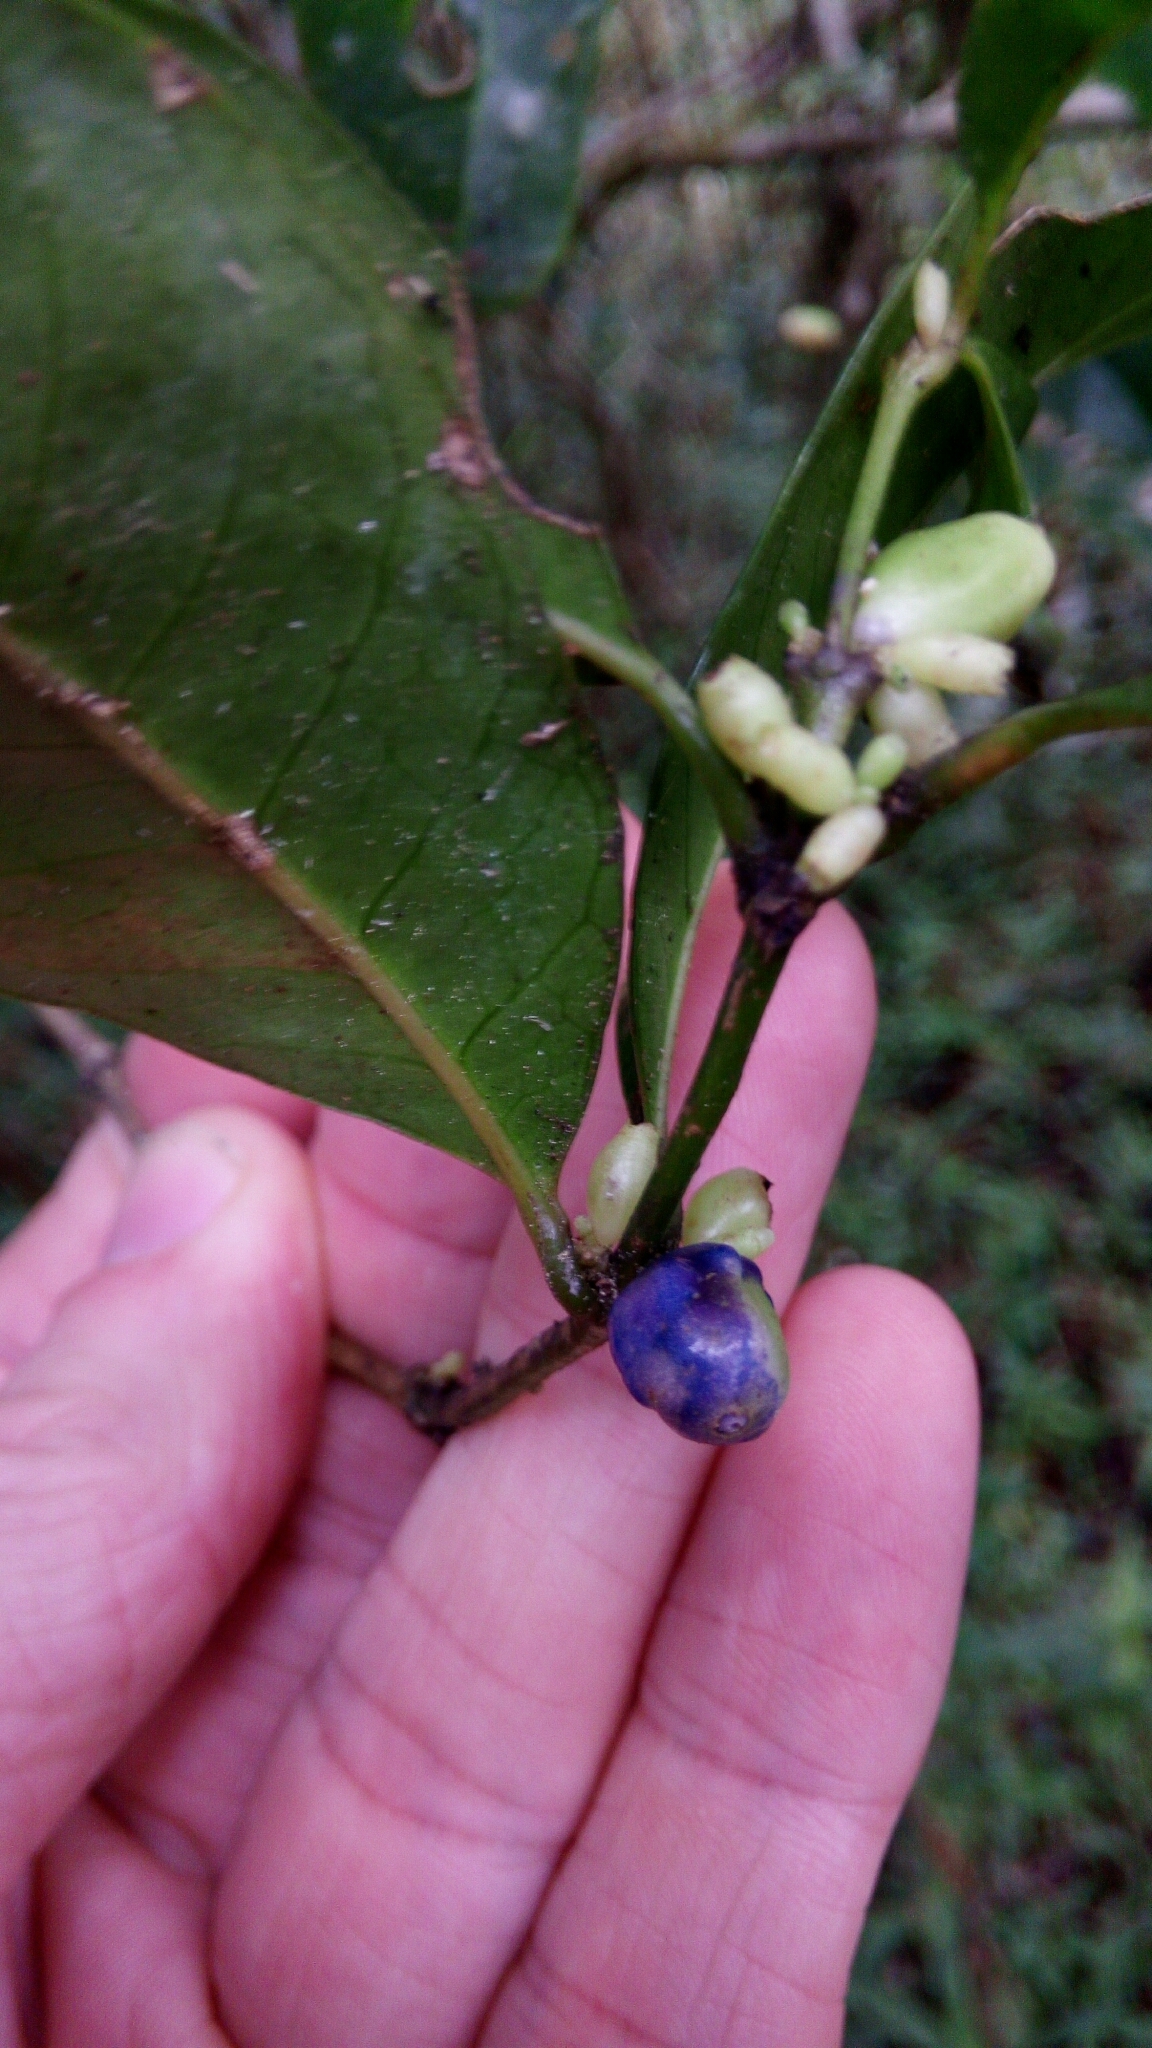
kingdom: Plantae
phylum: Tracheophyta
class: Magnoliopsida
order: Gentianales
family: Rubiaceae
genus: Saldinia
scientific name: Saldinia proboscidea
